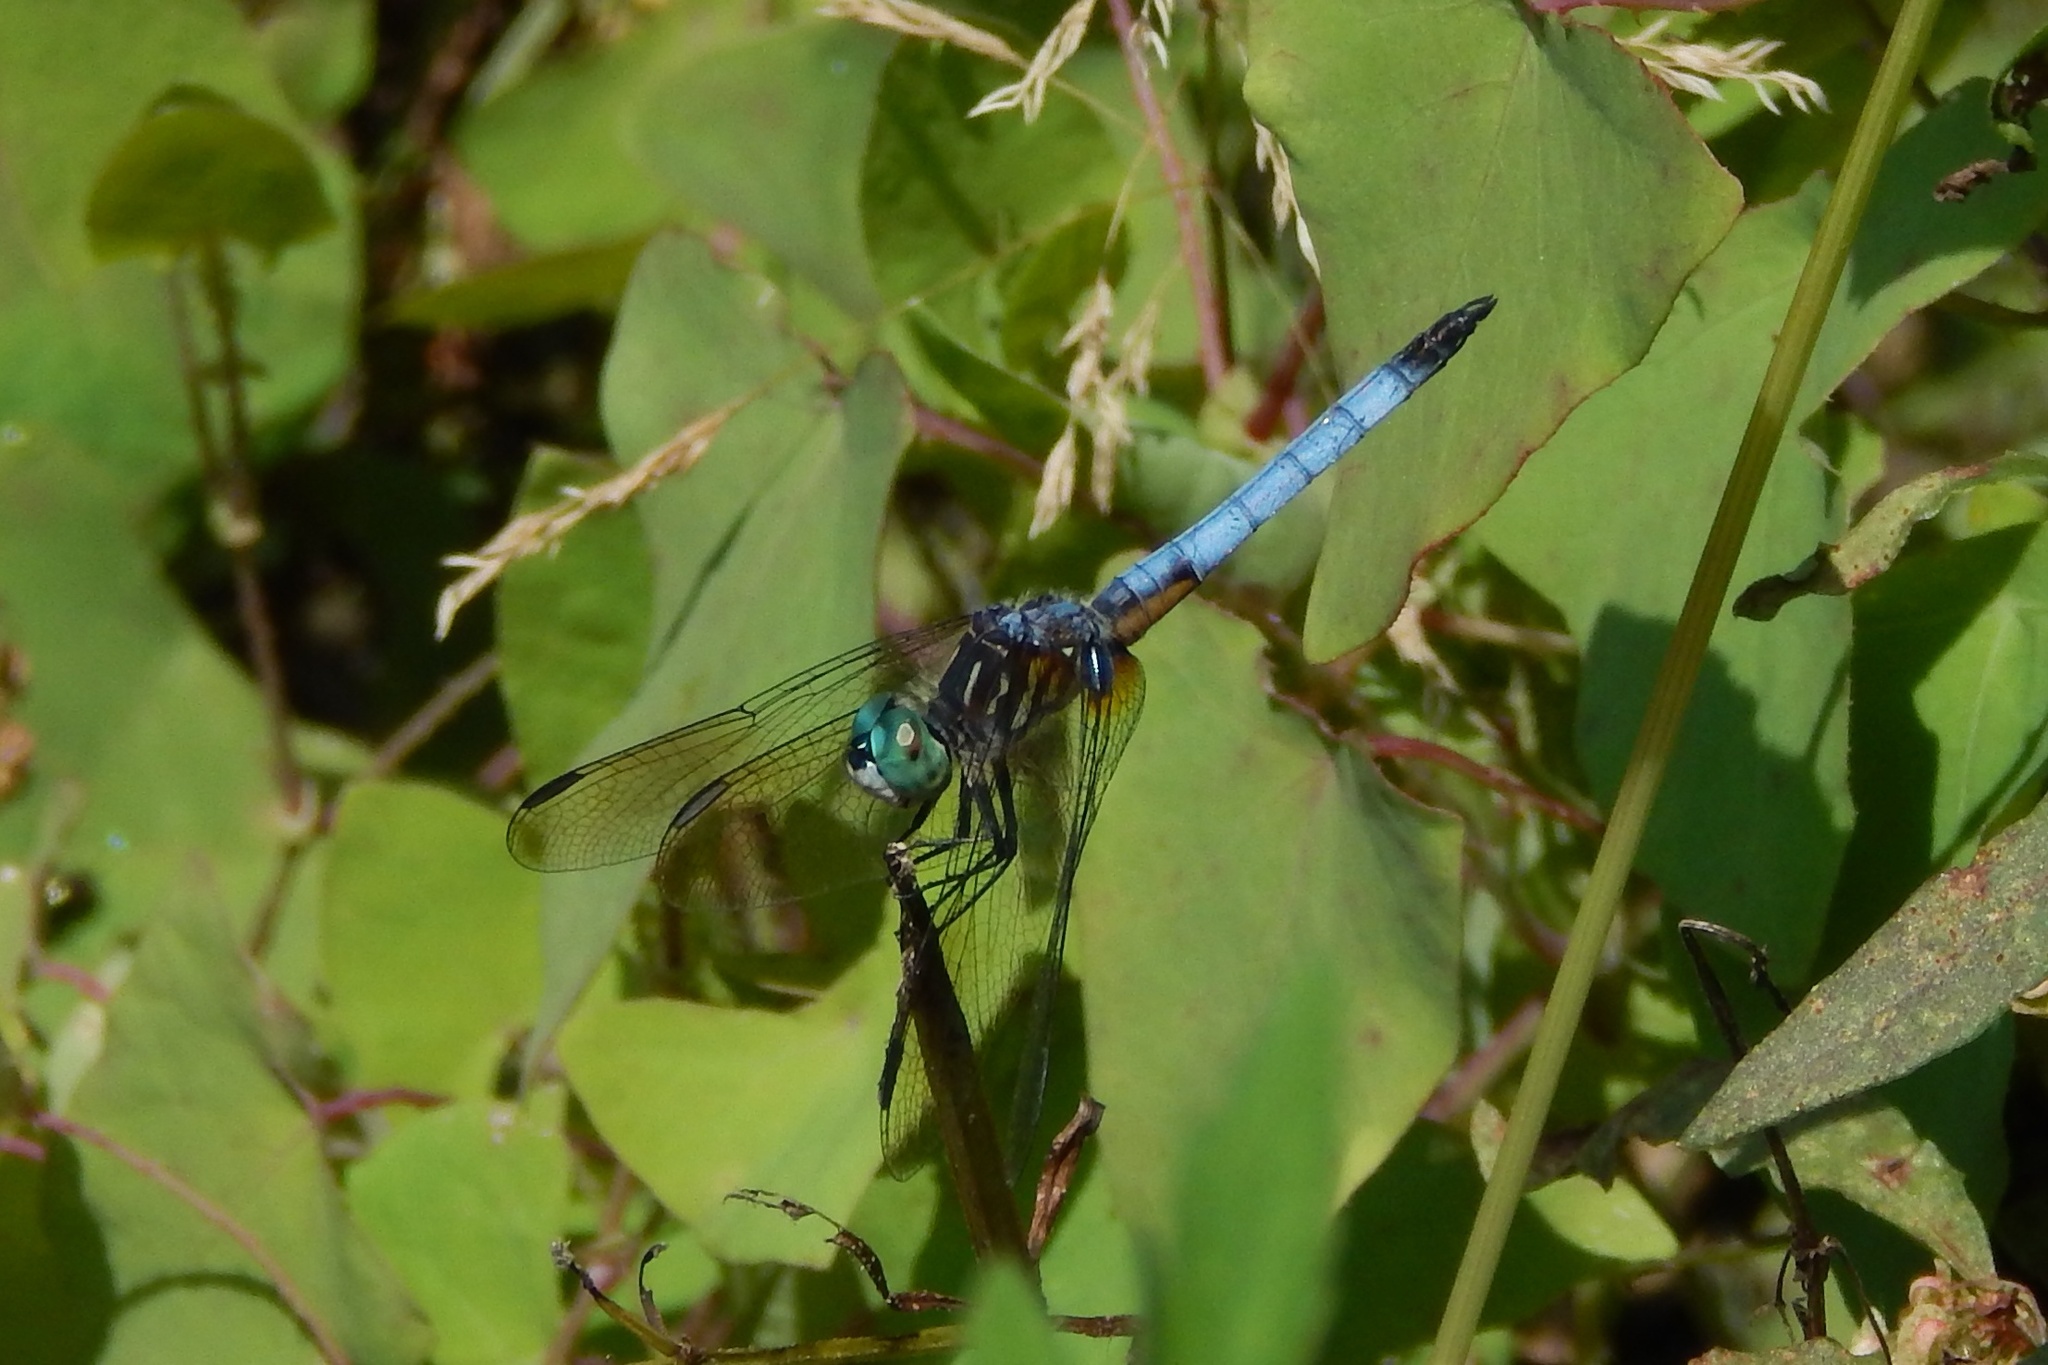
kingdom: Animalia
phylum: Arthropoda
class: Insecta
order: Odonata
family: Libellulidae
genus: Pachydiplax
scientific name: Pachydiplax longipennis
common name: Blue dasher
